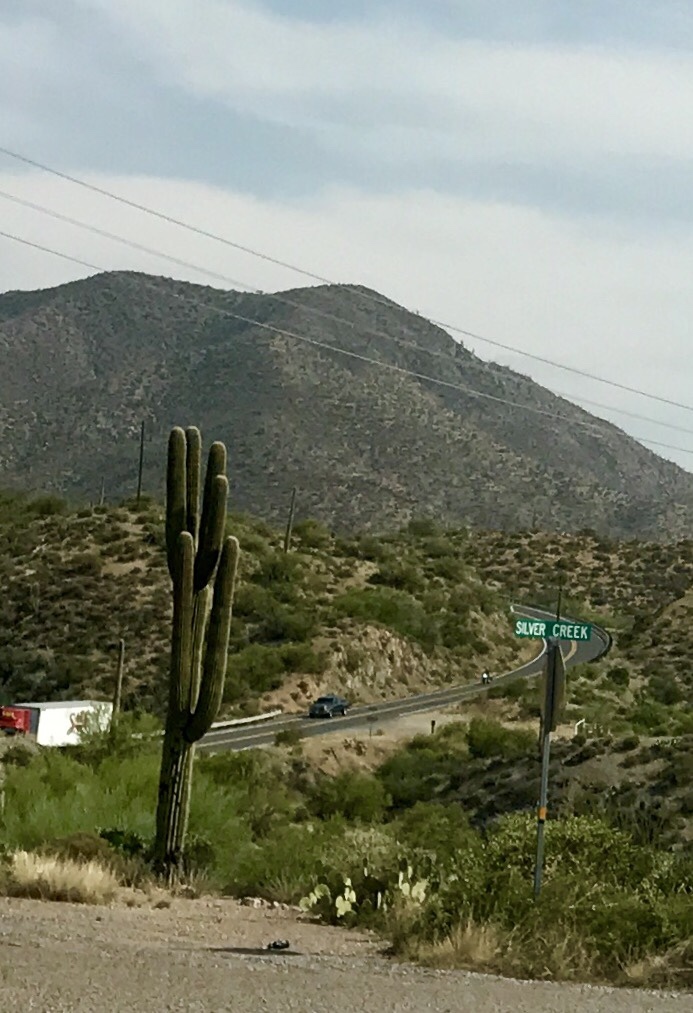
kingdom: Plantae
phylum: Tracheophyta
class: Magnoliopsida
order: Caryophyllales
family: Cactaceae
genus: Carnegiea
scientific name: Carnegiea gigantea
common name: Saguaro
